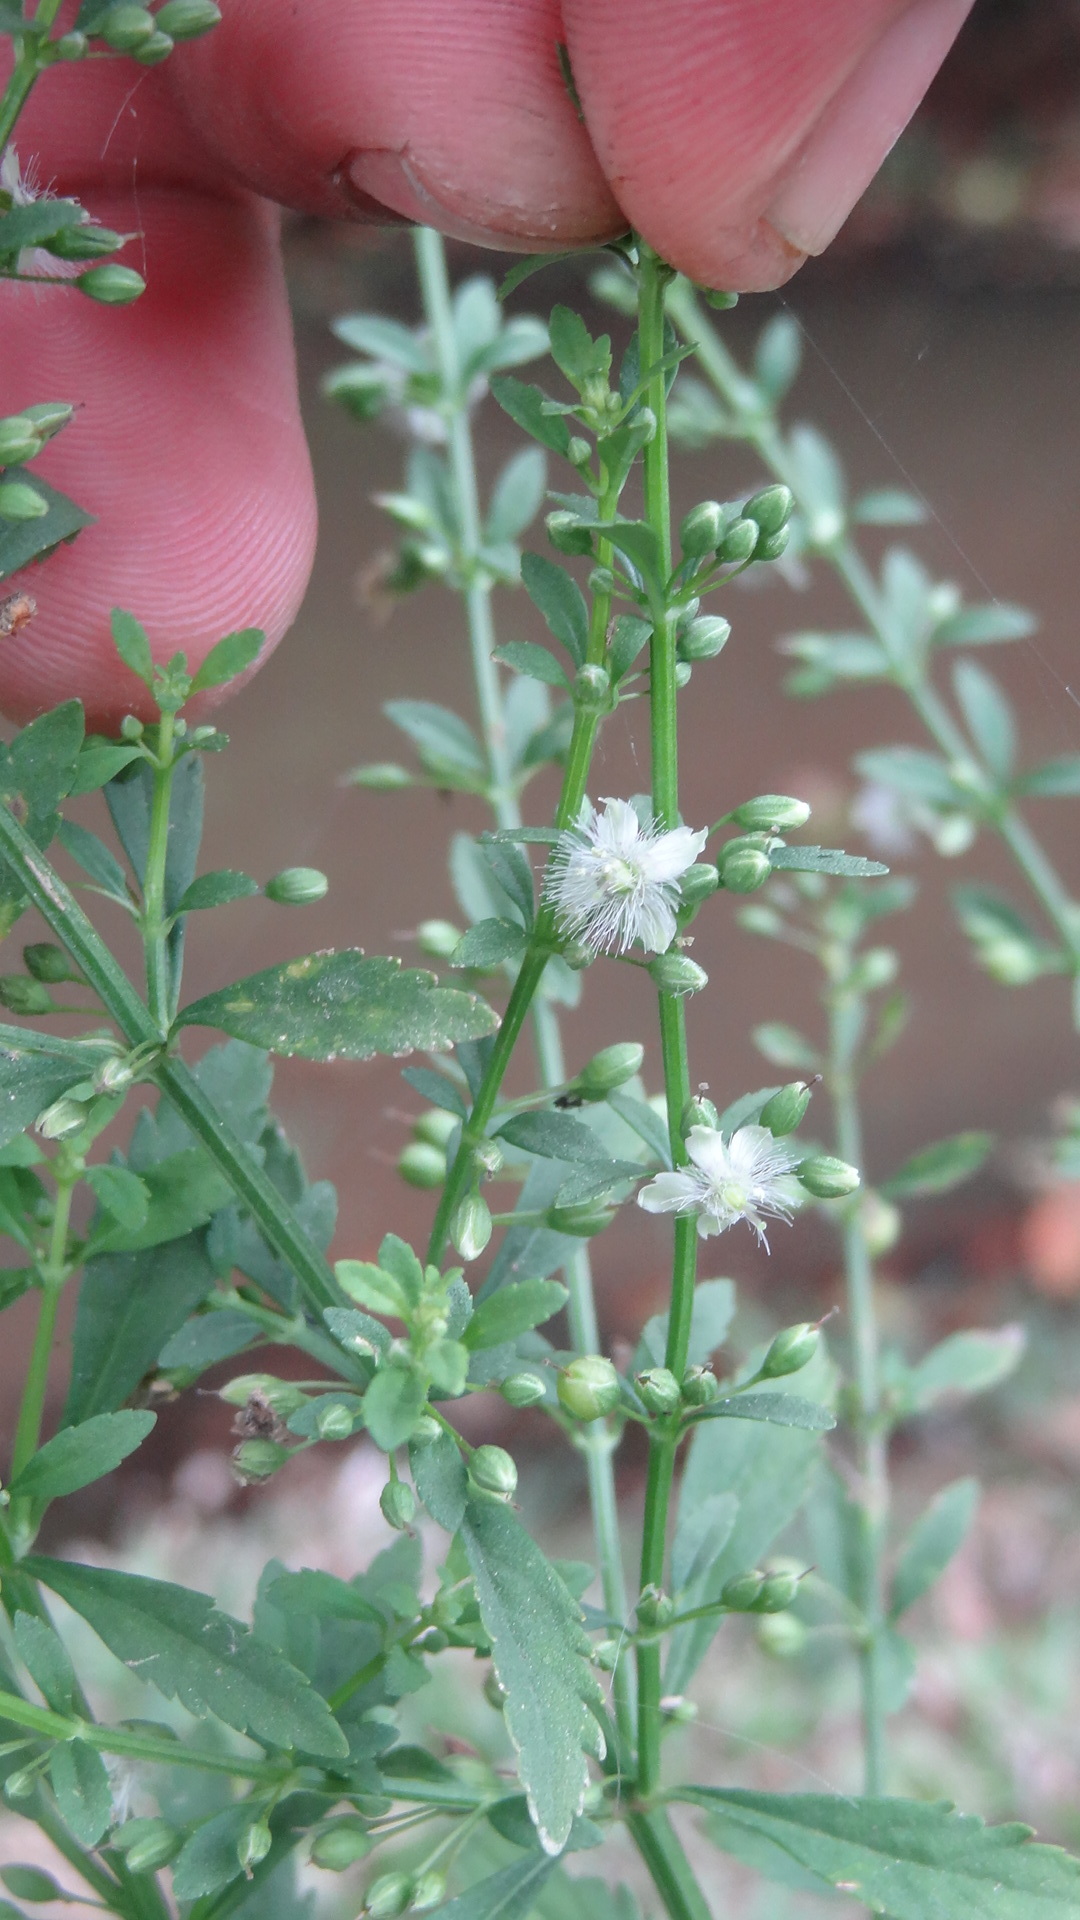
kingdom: Plantae
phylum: Tracheophyta
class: Magnoliopsida
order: Lamiales
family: Plantaginaceae
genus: Scoparia
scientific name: Scoparia dulcis
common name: Scoparia-weed
